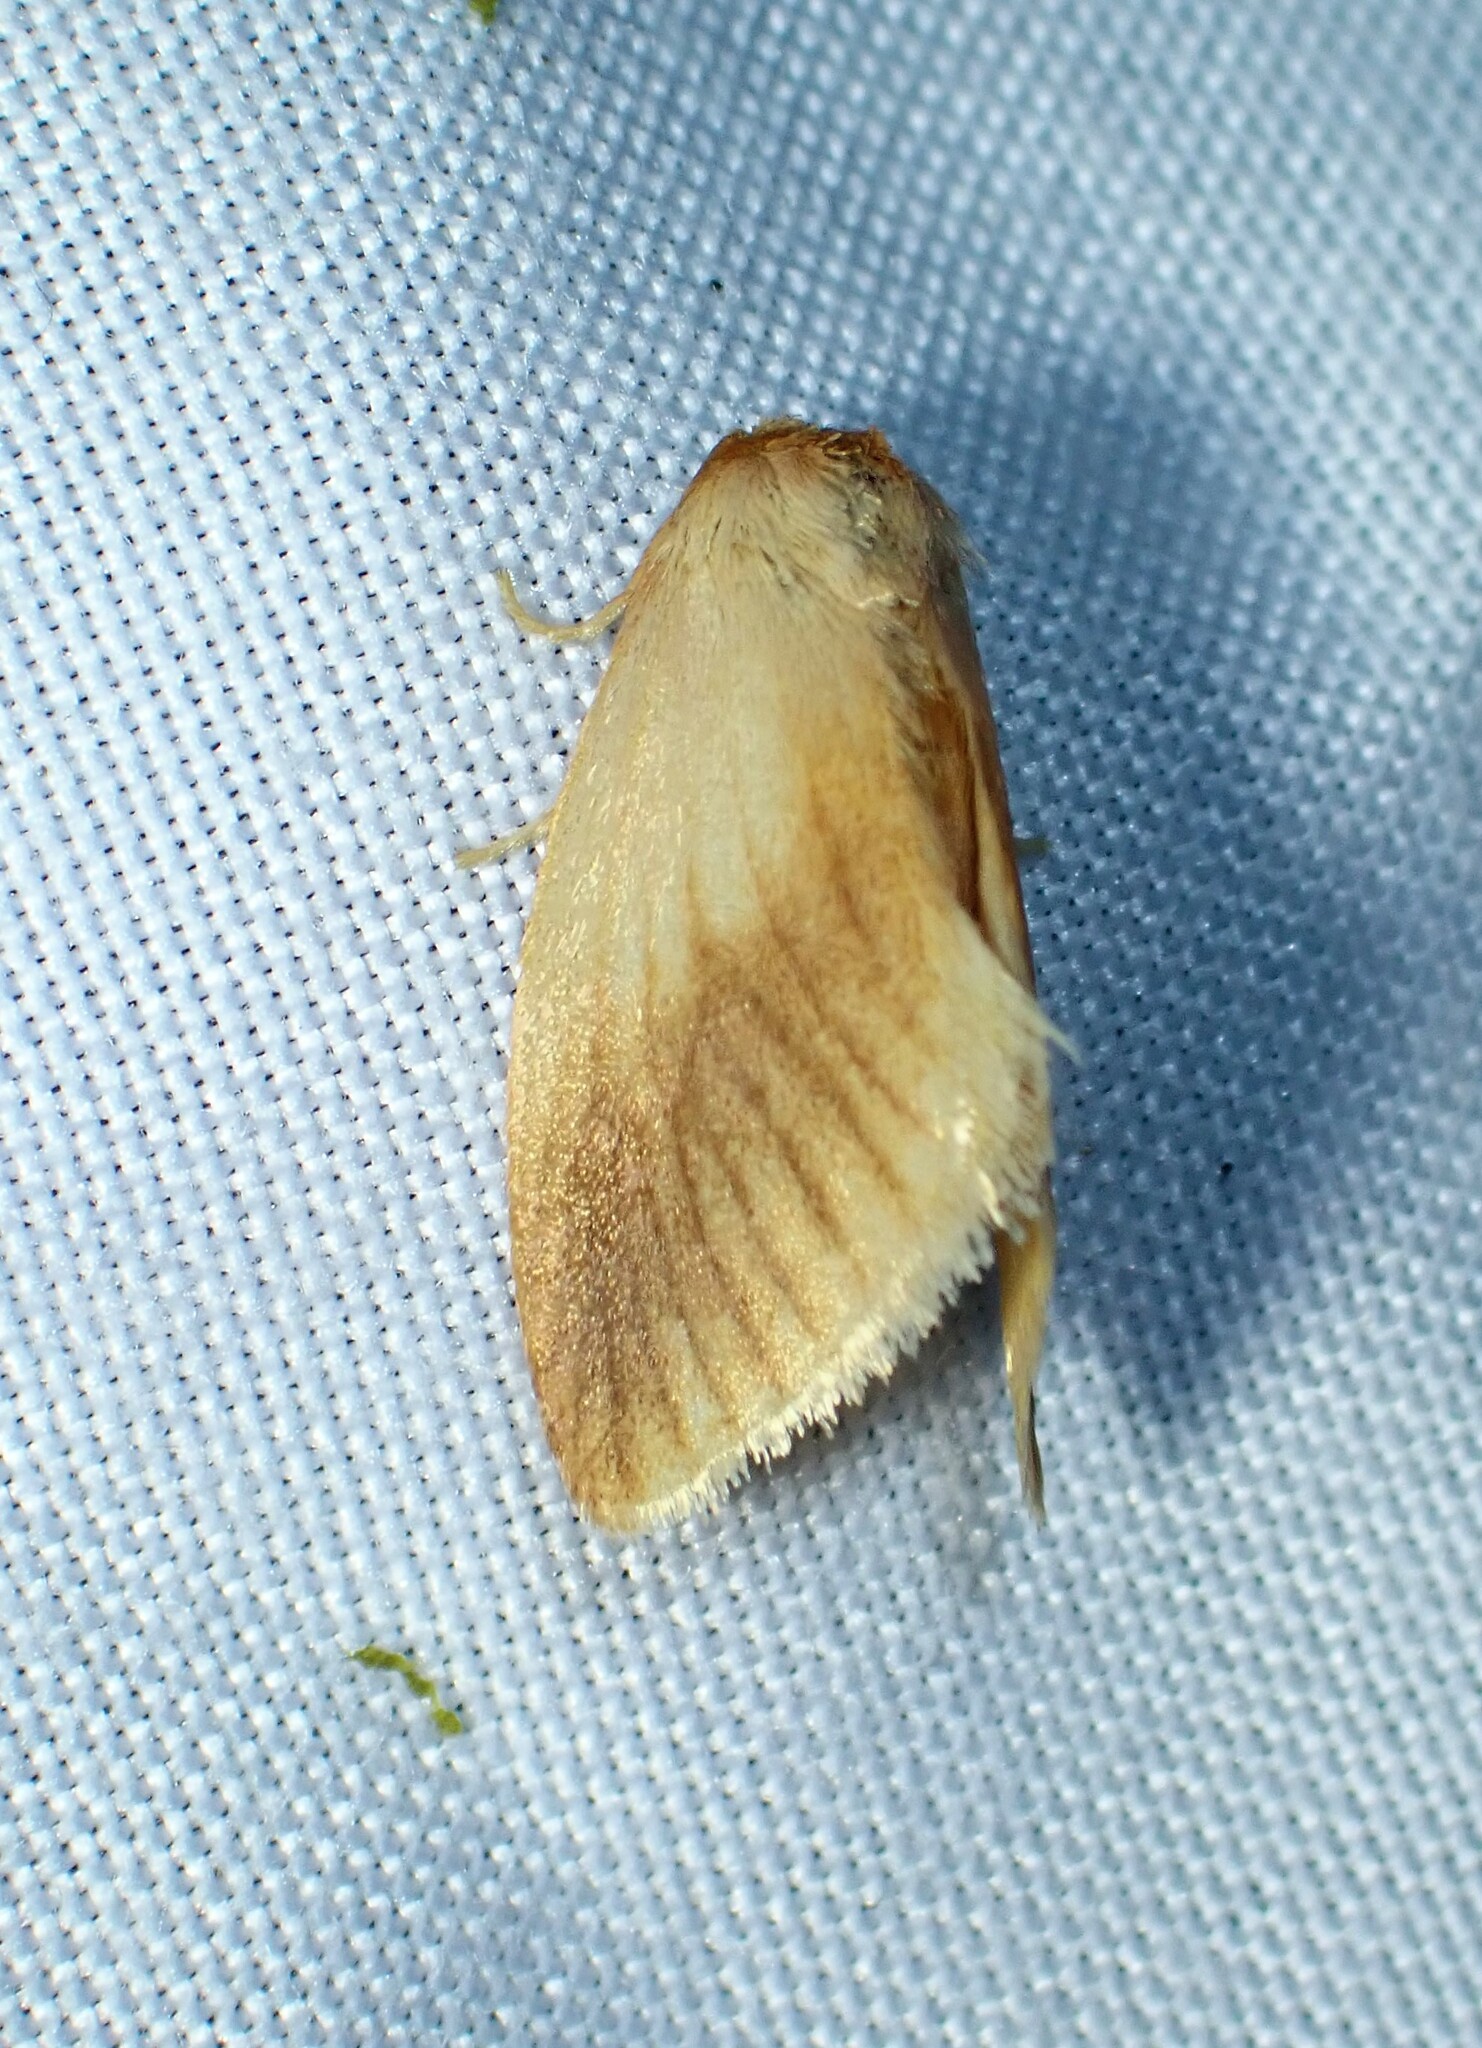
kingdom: Animalia
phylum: Arthropoda
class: Insecta
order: Lepidoptera
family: Limacodidae
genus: Tortricidia
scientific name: Tortricidia testacea
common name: Early button slug moth
